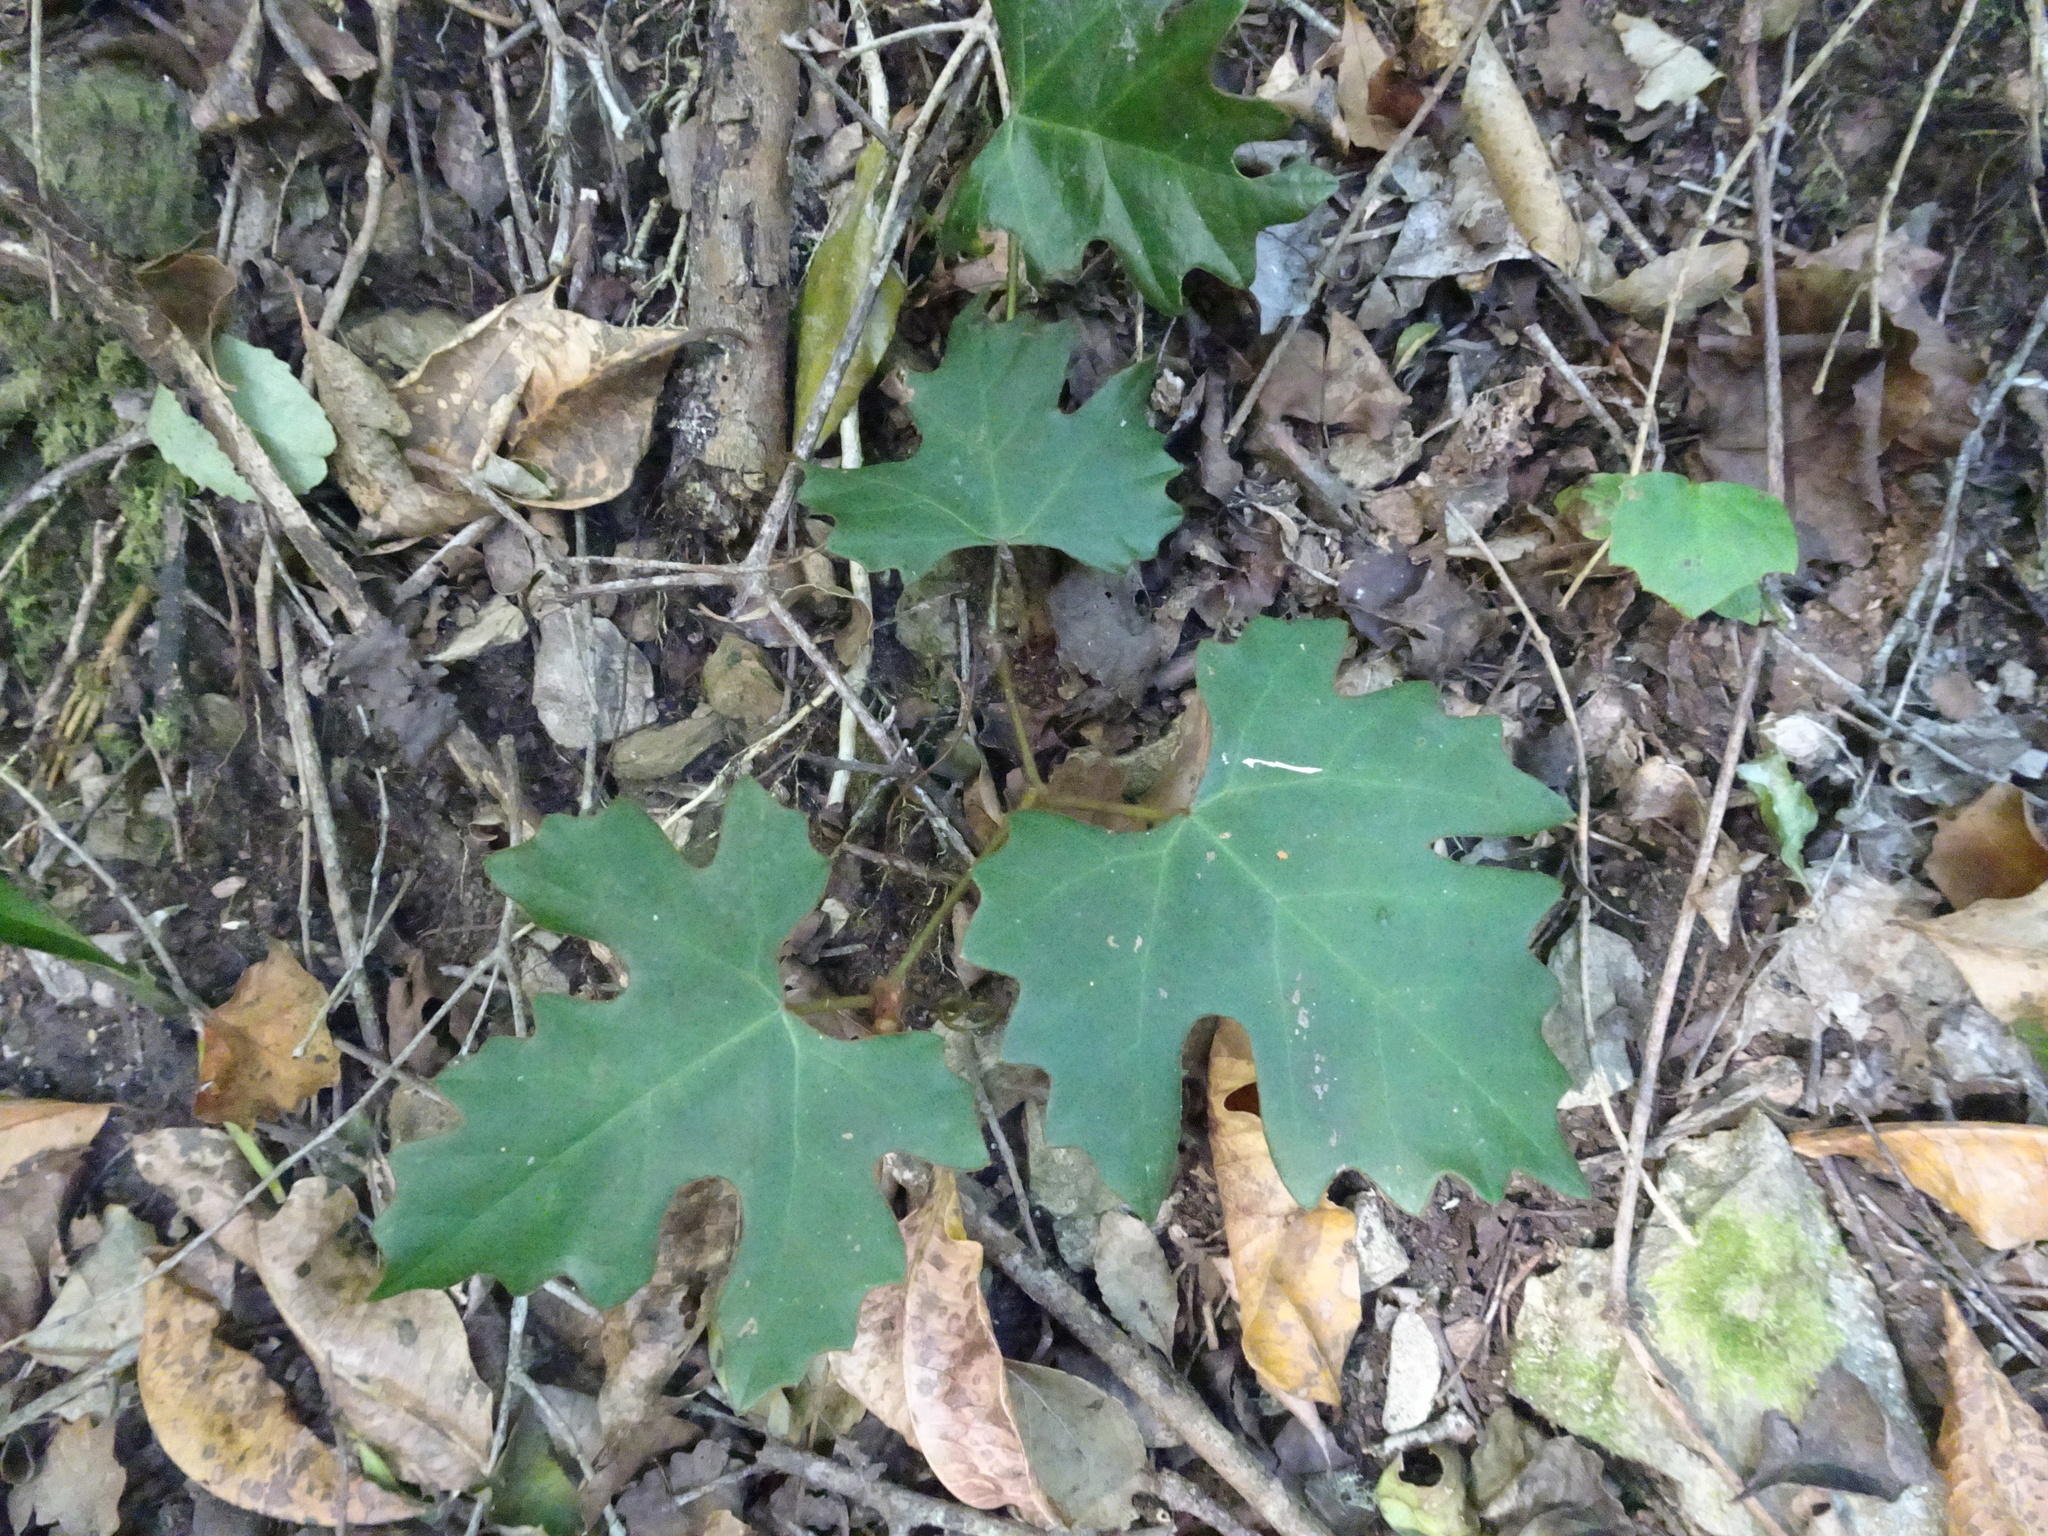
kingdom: Plantae
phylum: Tracheophyta
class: Magnoliopsida
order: Vitales
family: Vitaceae
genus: Rhoicissus
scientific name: Rhoicissus tomentosa
